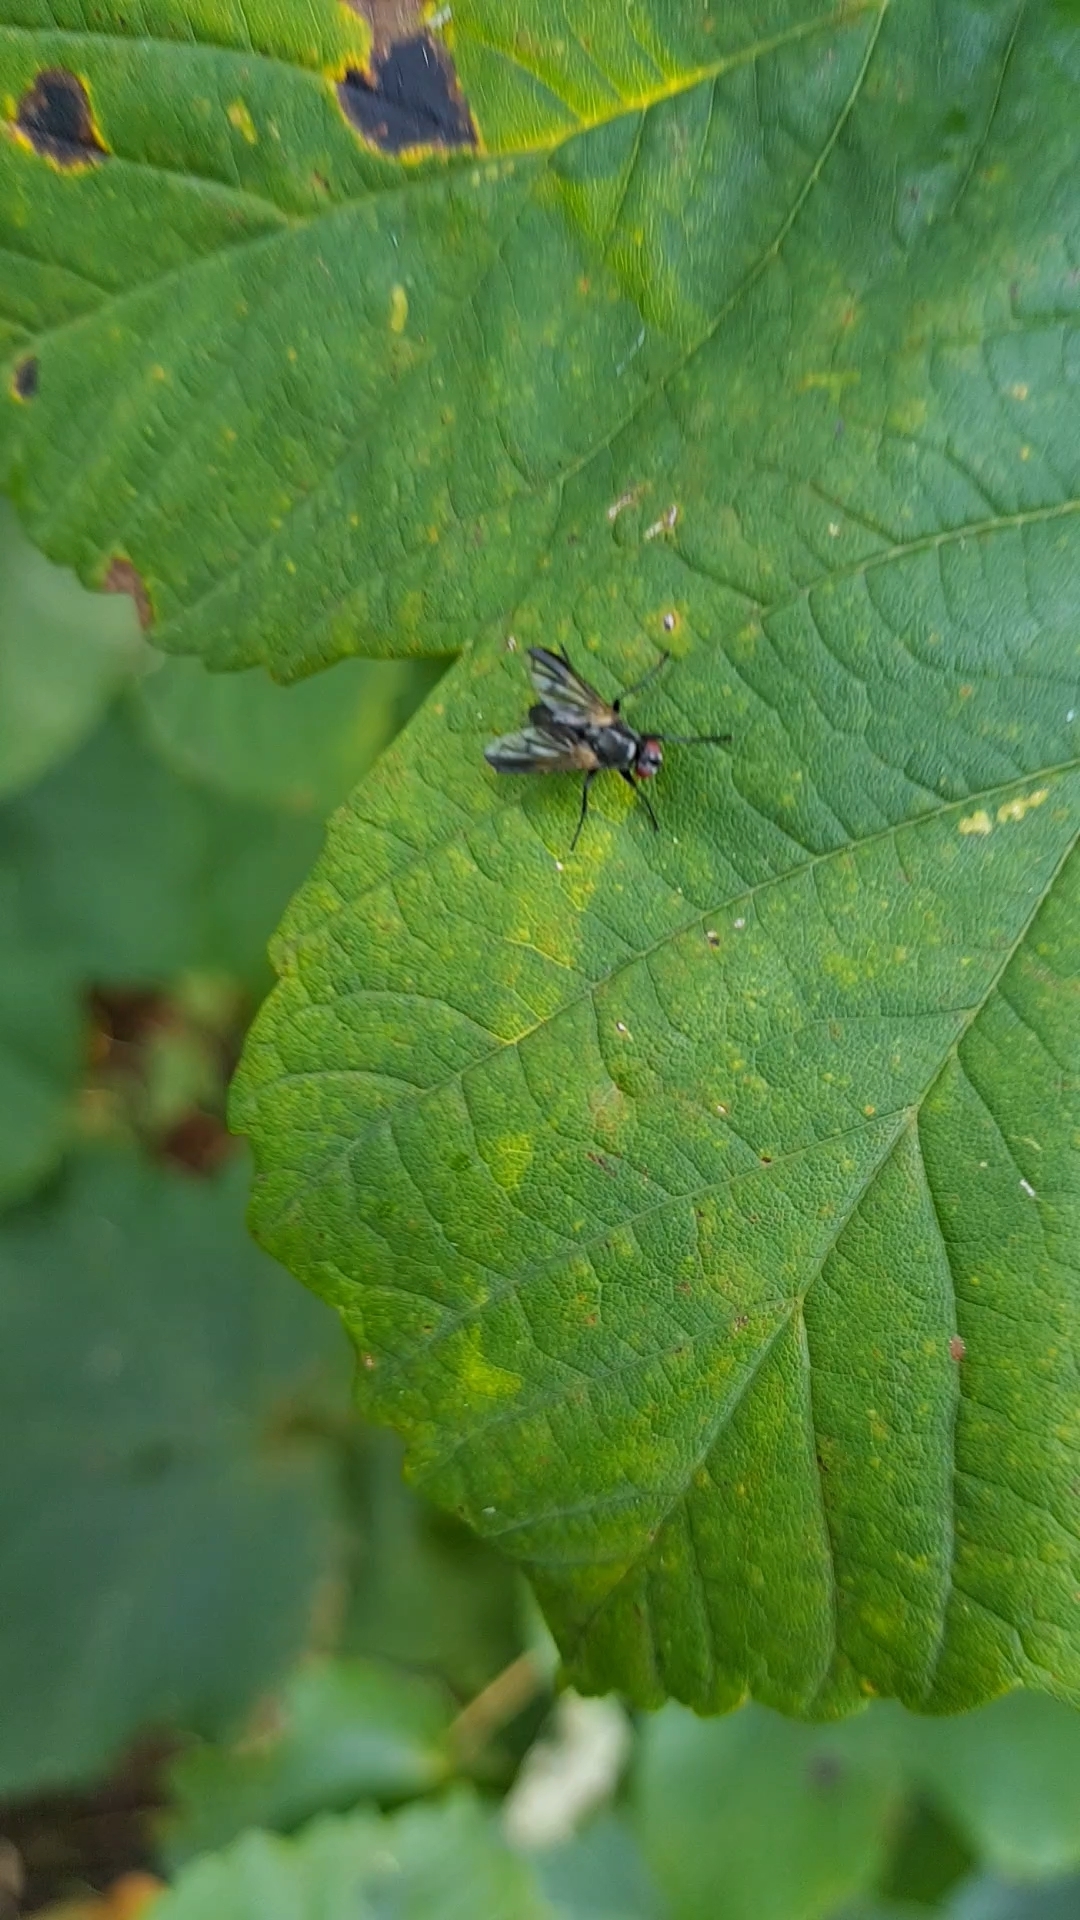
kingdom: Animalia
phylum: Arthropoda
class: Insecta
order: Diptera
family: Calliphoridae
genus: Paykullia
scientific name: Paykullia maculata
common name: Picture-winged woodlouse-fly
